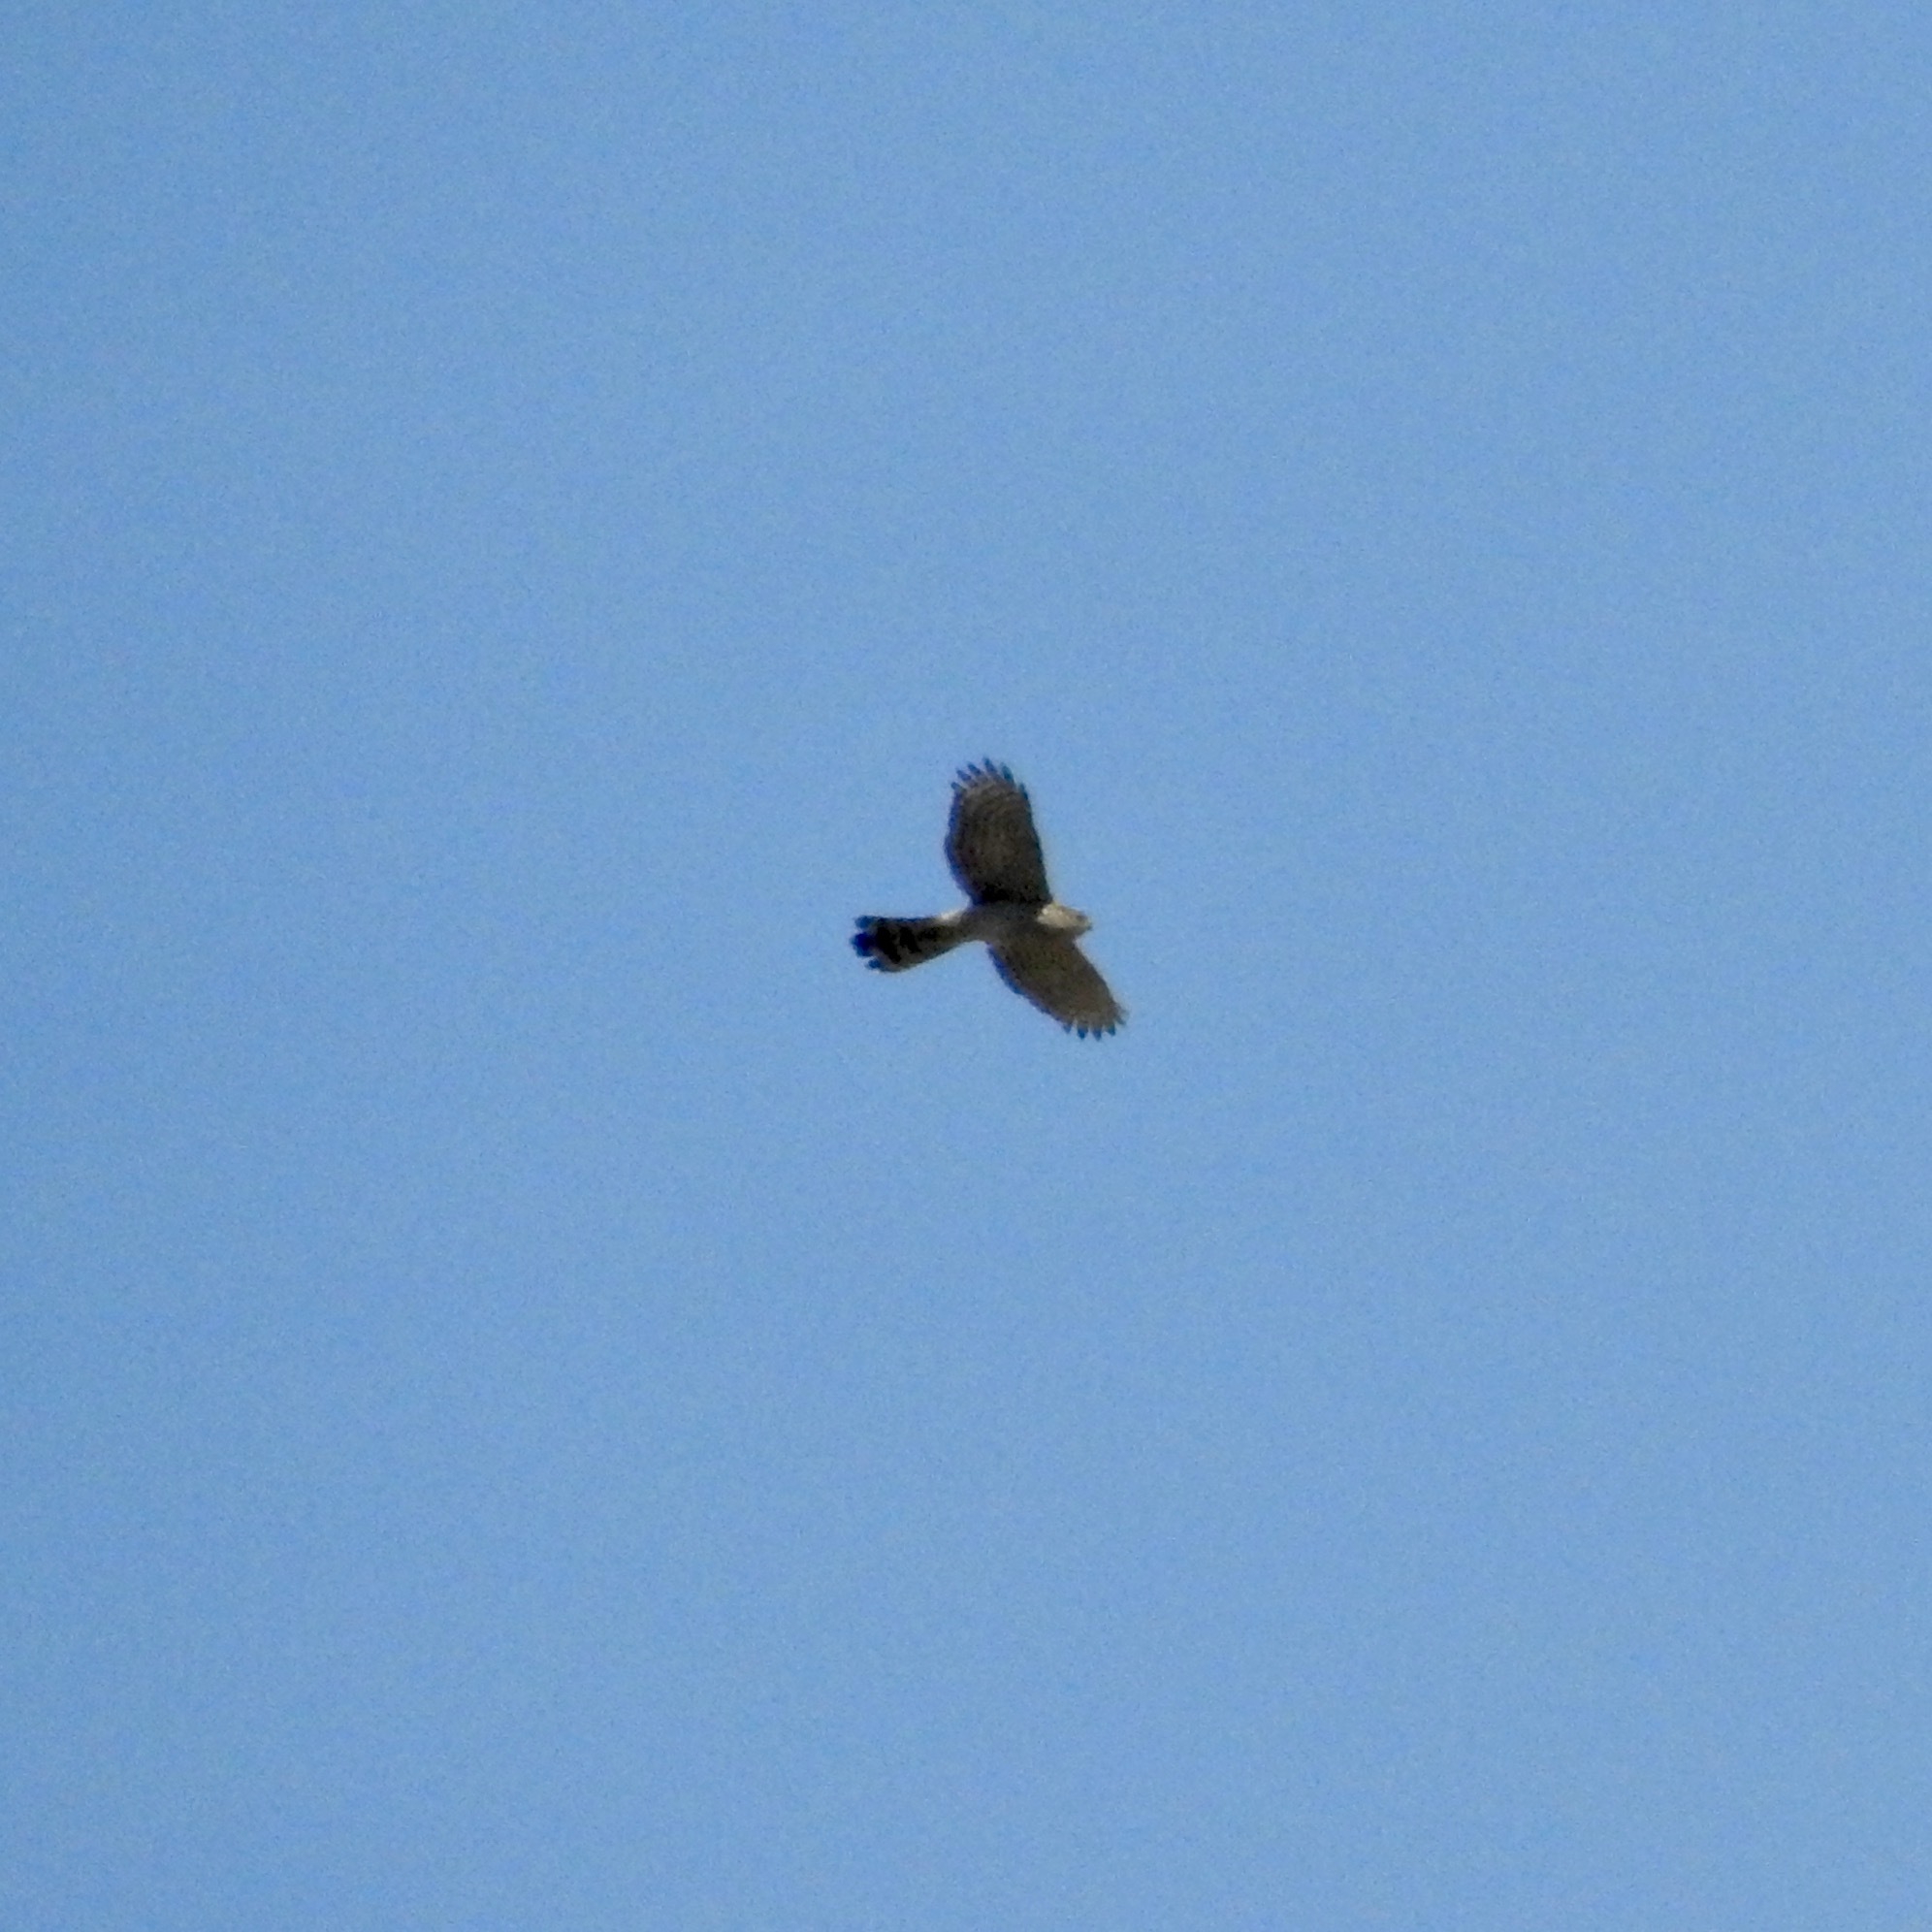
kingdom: Animalia
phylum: Chordata
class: Aves
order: Accipitriformes
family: Accipitridae
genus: Accipiter
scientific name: Accipiter cooperii
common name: Cooper's hawk
